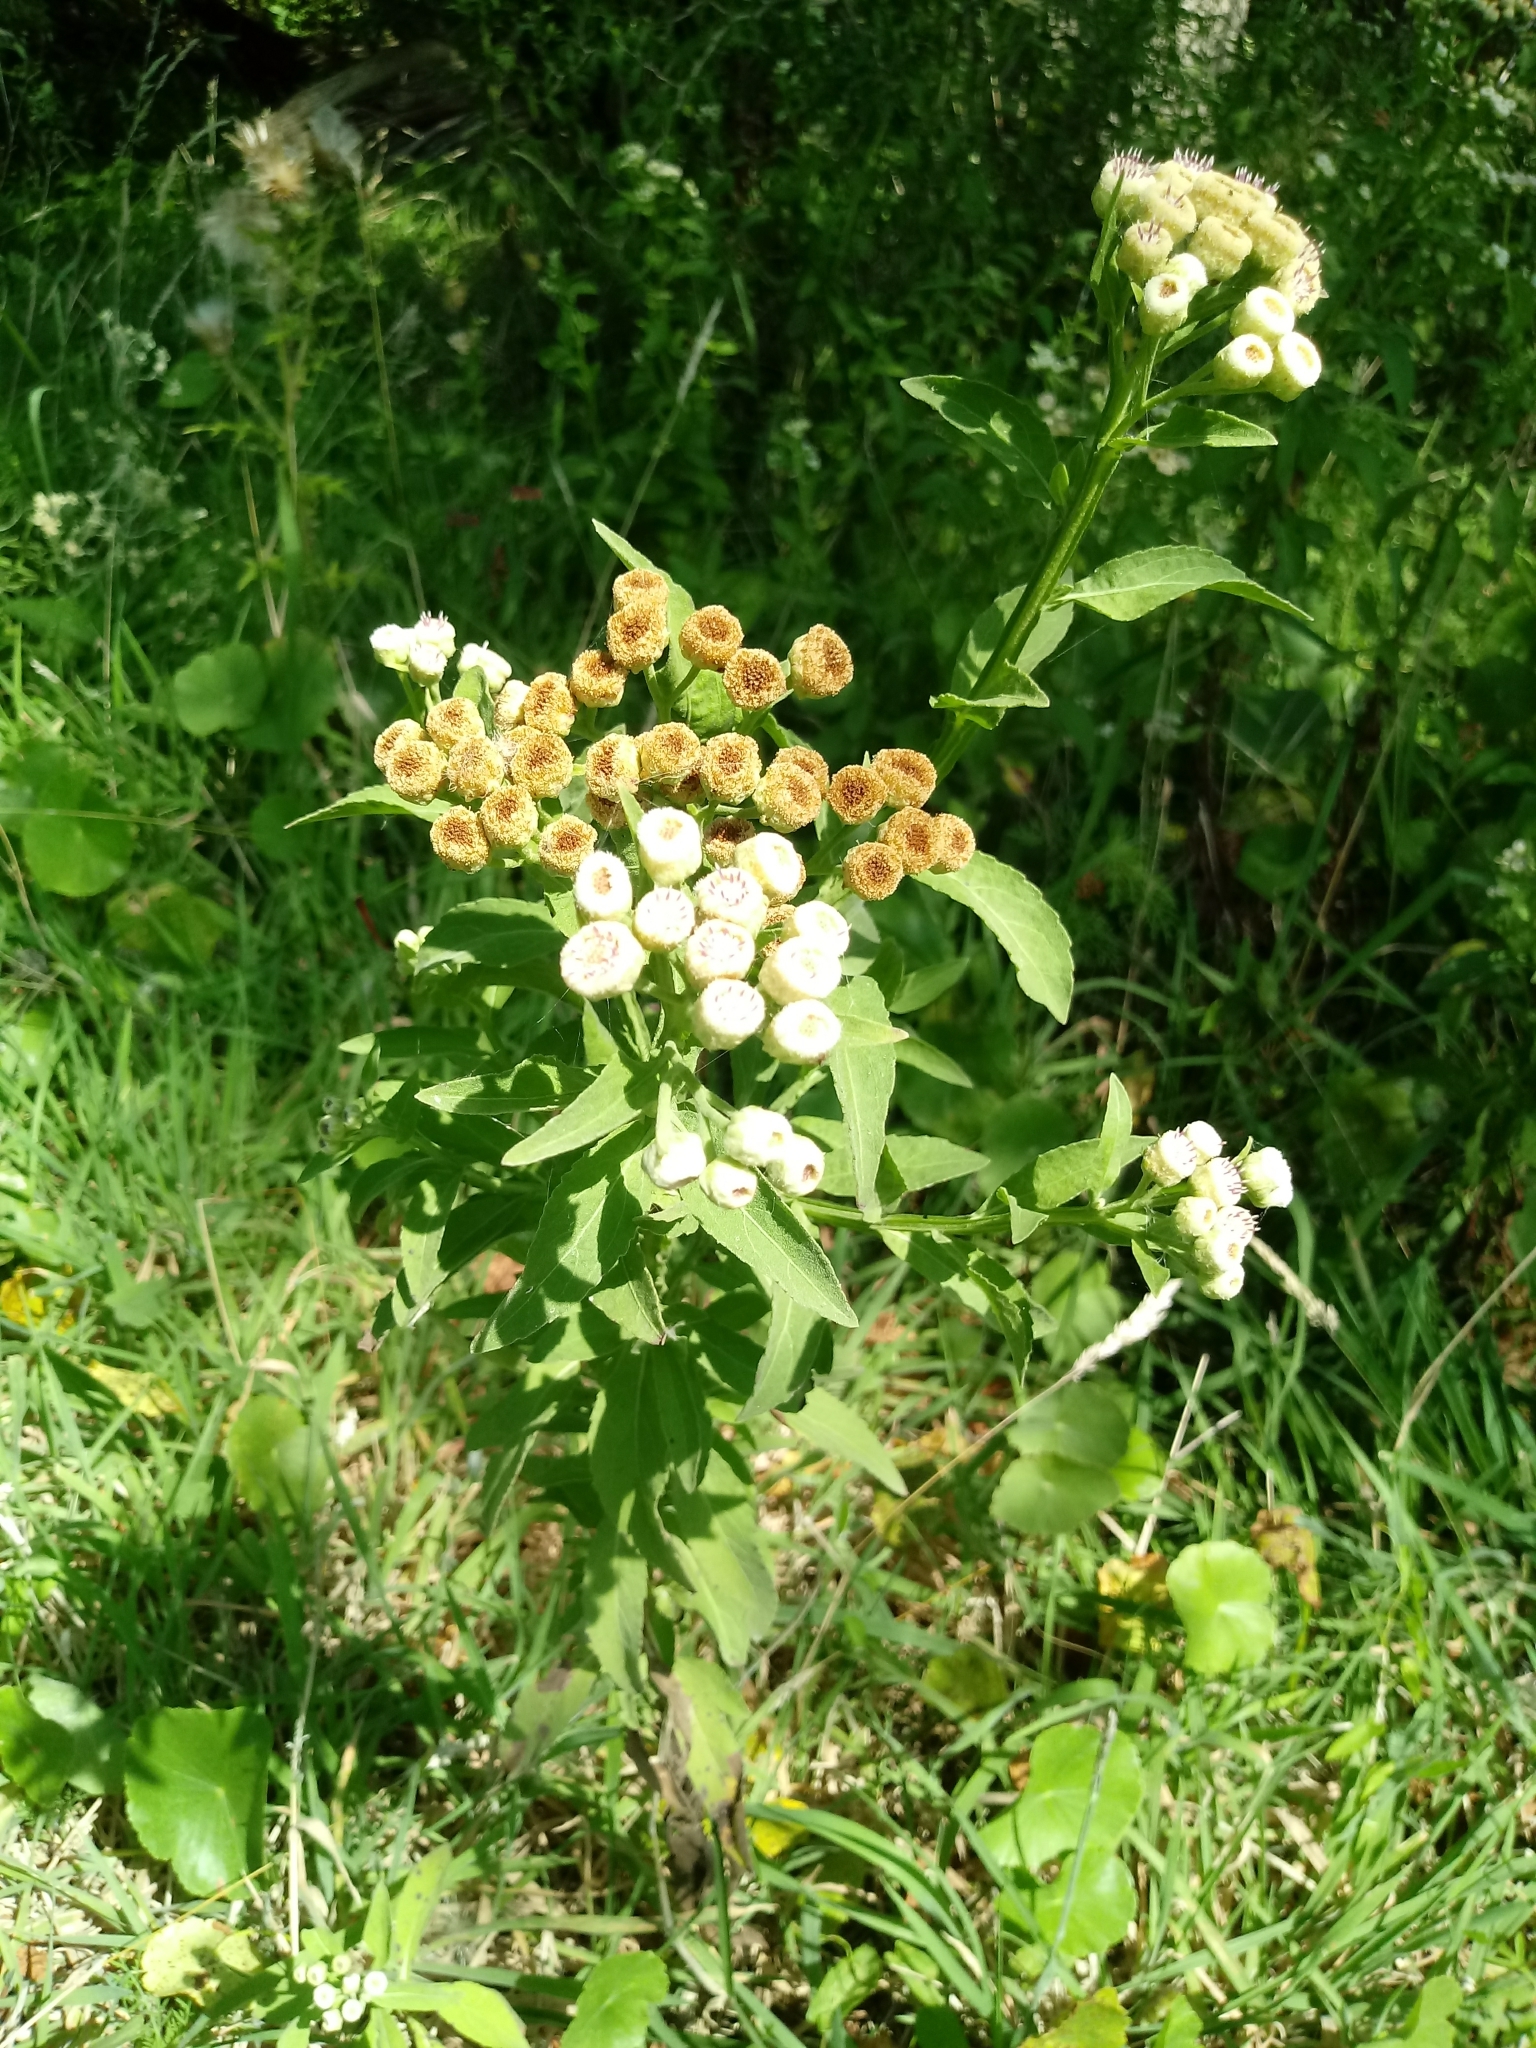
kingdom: Plantae
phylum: Tracheophyta
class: Magnoliopsida
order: Asterales
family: Asteraceae
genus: Pluchea
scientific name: Pluchea sagittalis
